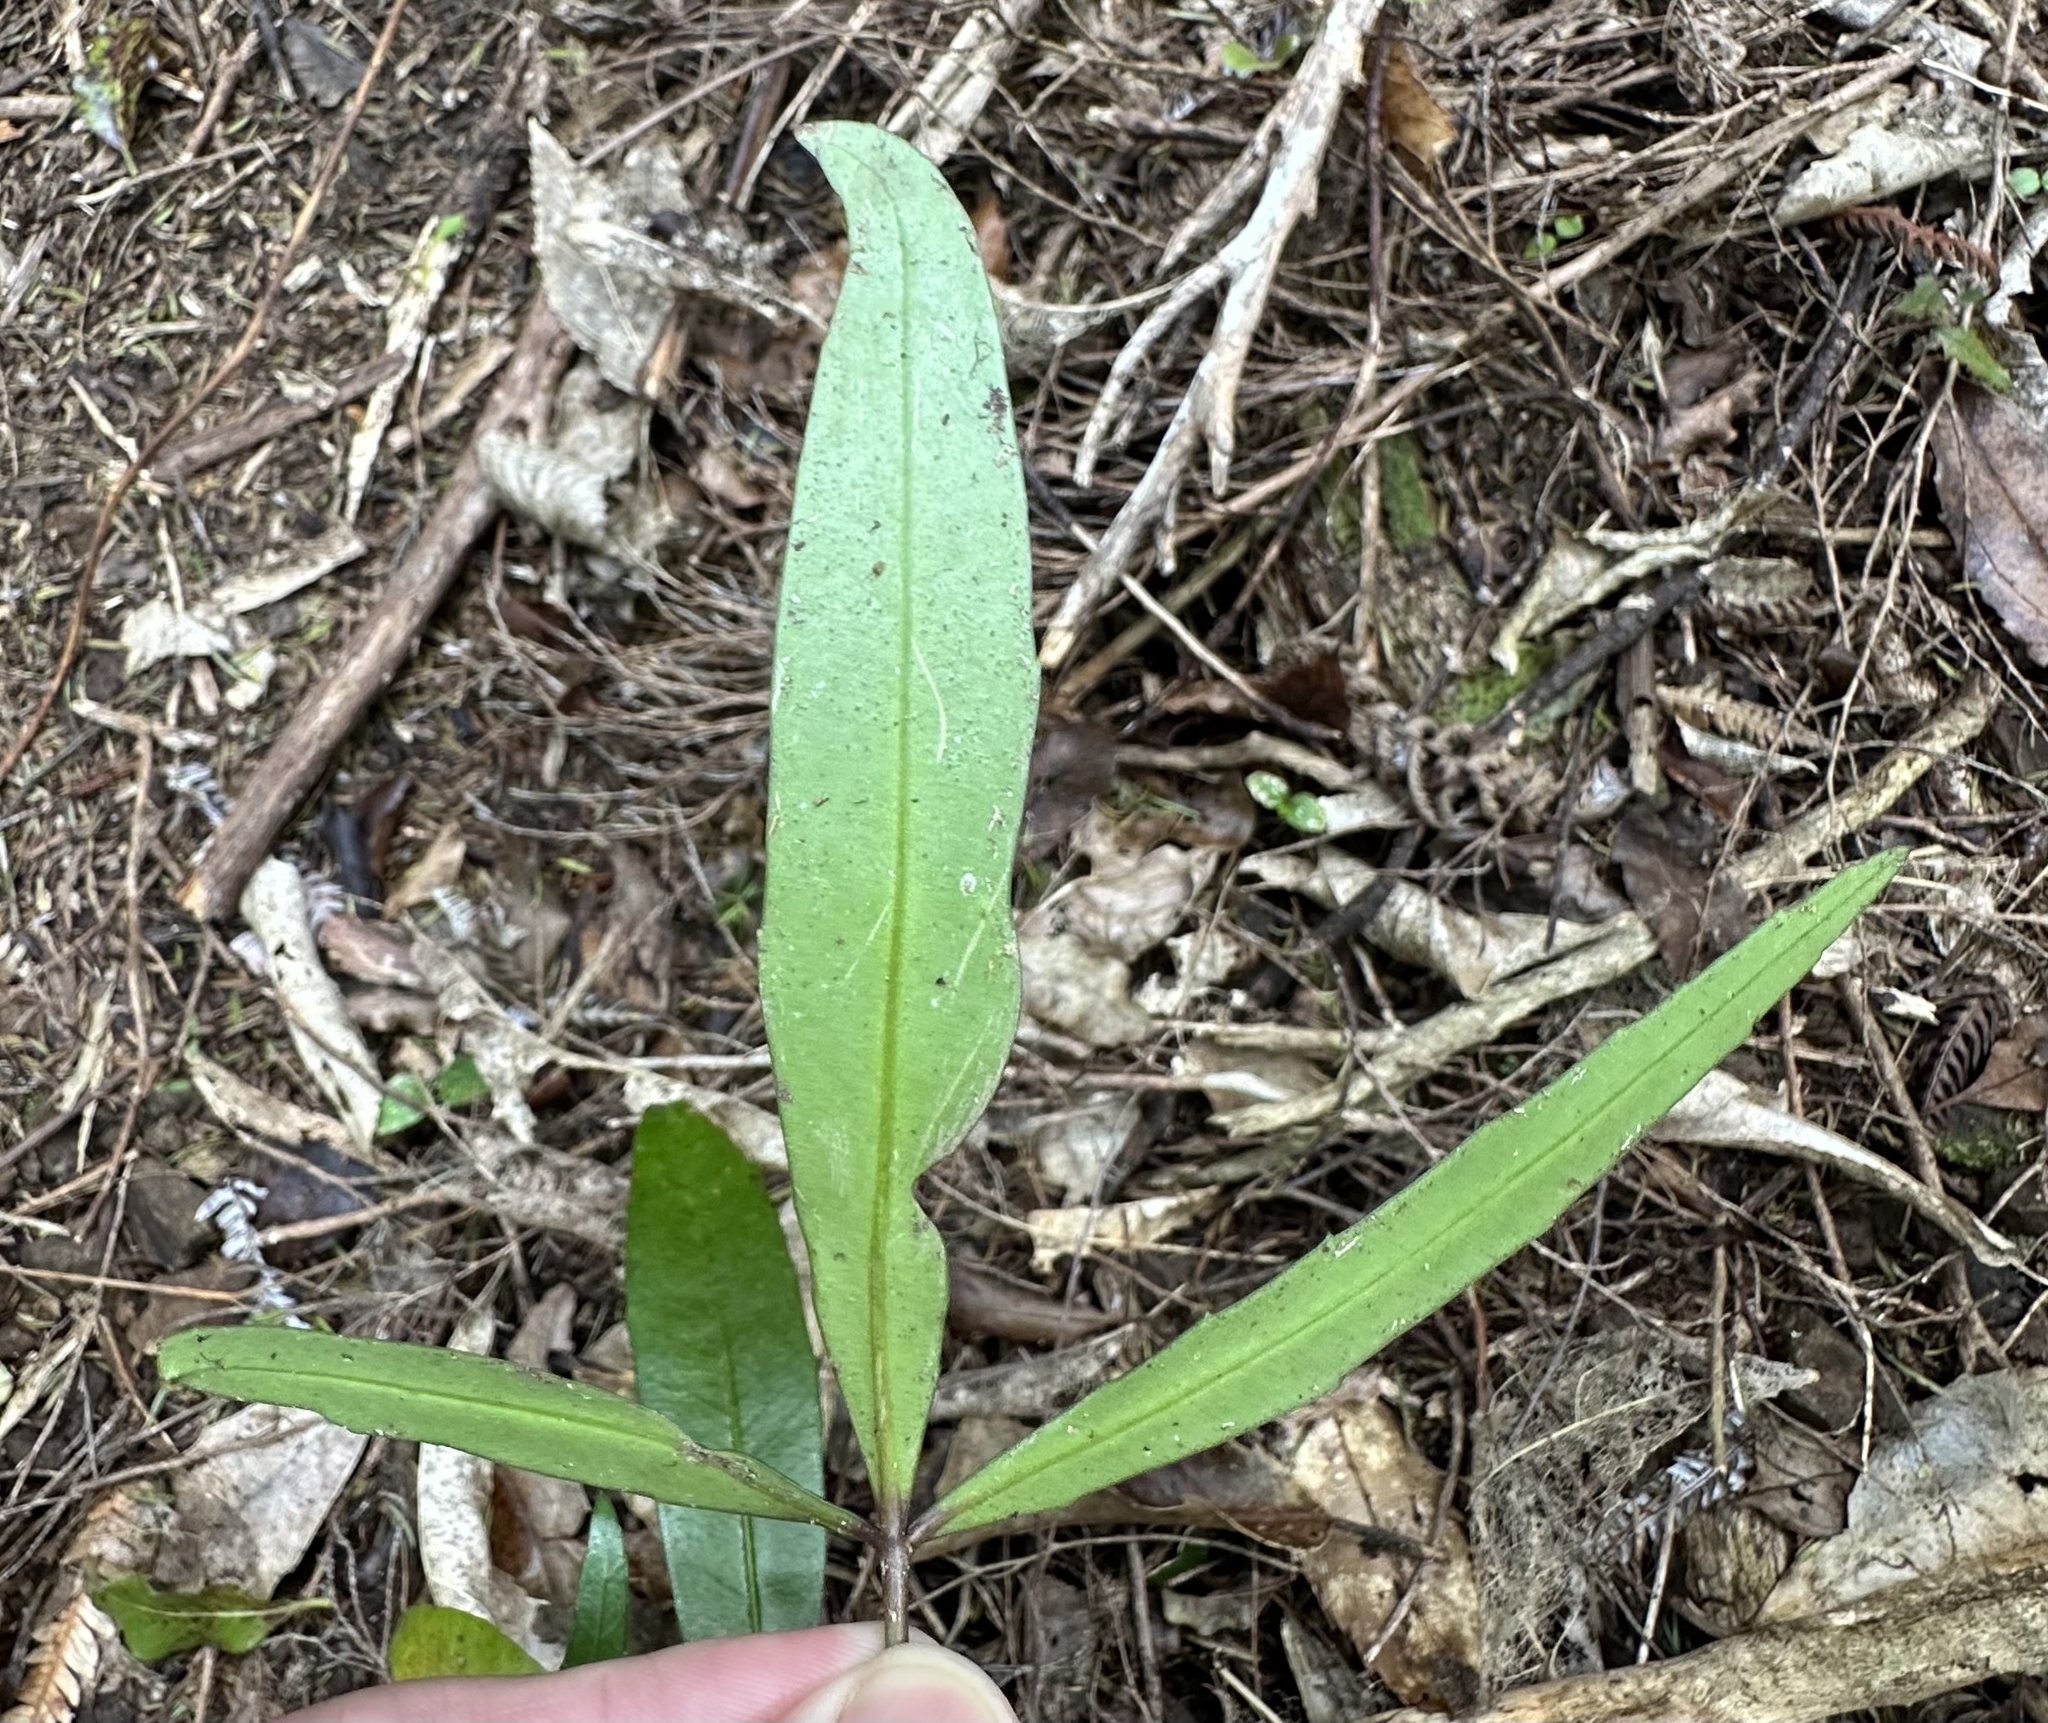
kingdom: Plantae
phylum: Tracheophyta
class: Magnoliopsida
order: Apiales
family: Araliaceae
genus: Pseudopanax
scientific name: Pseudopanax
